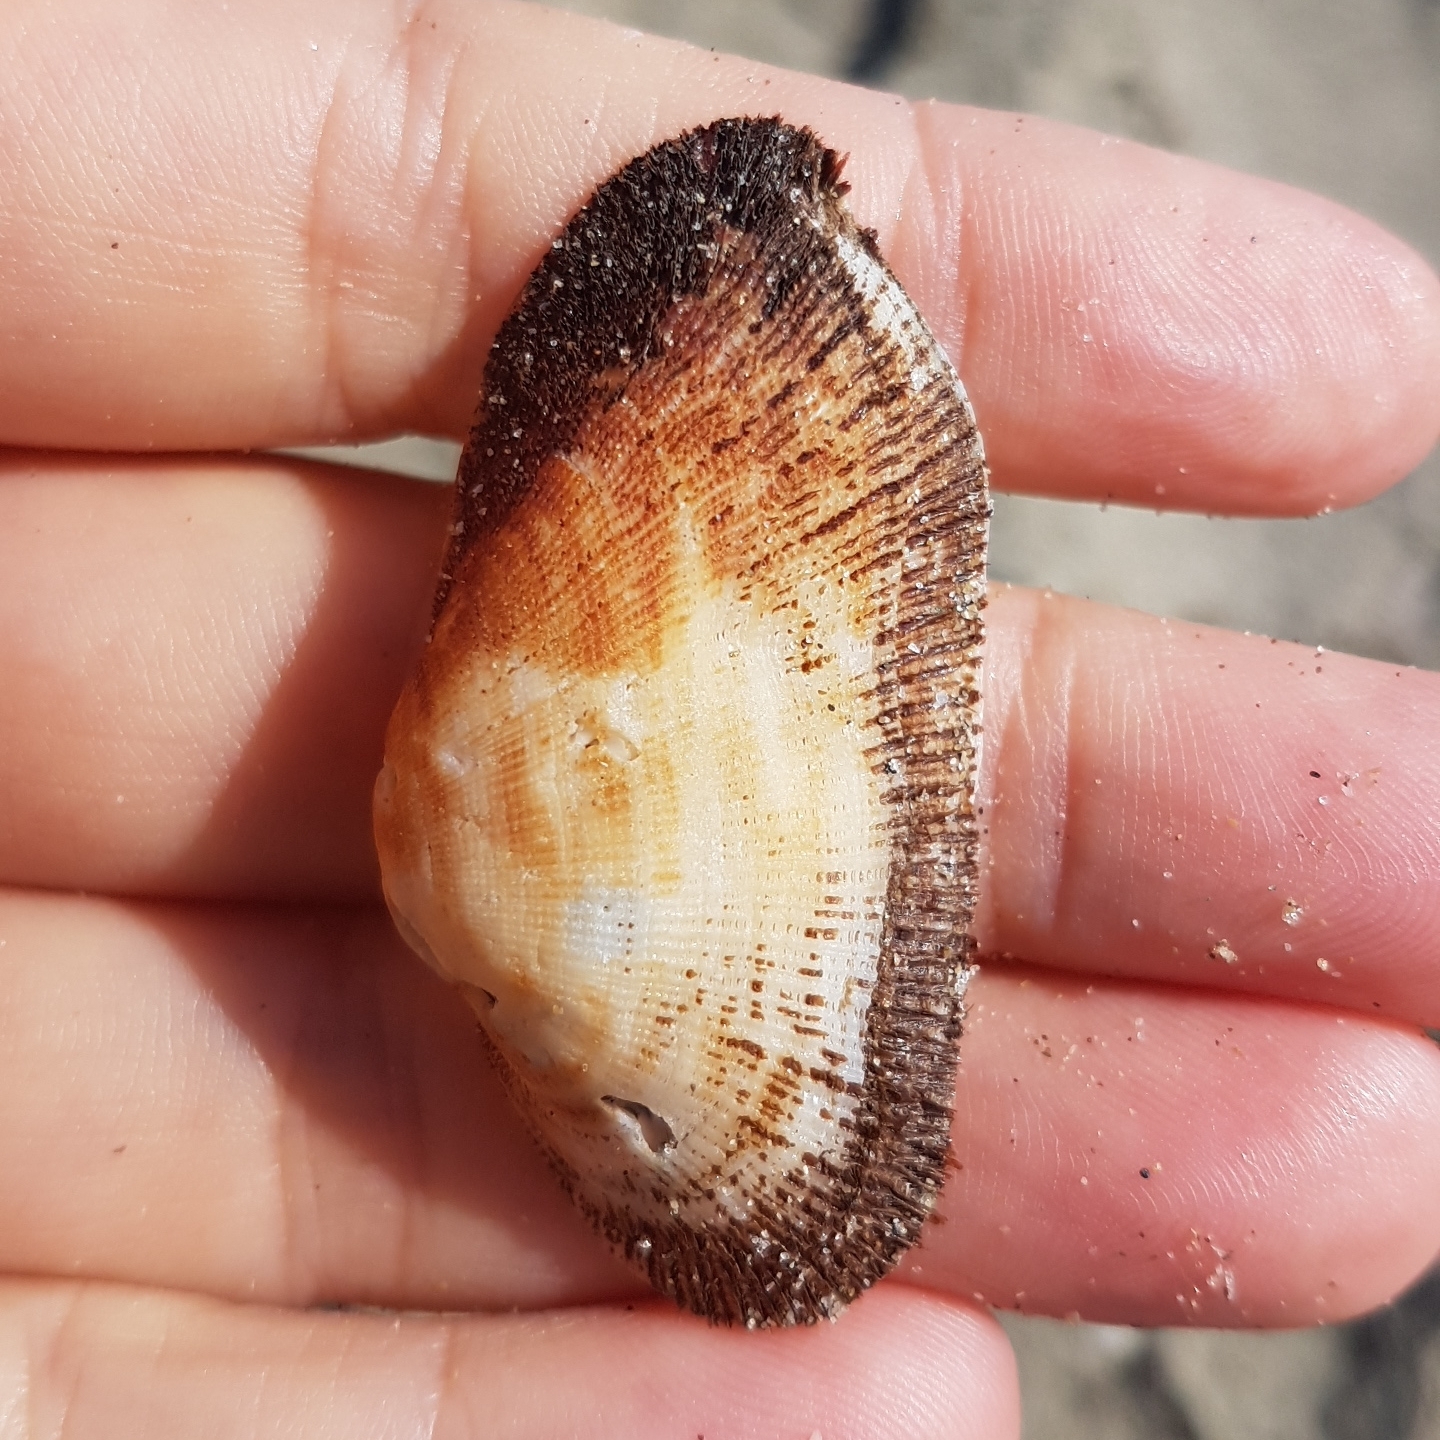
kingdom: Animalia
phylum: Mollusca
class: Bivalvia
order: Arcida
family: Arcidae
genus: Barbatia
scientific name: Barbatia barbata
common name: Bearded ark
